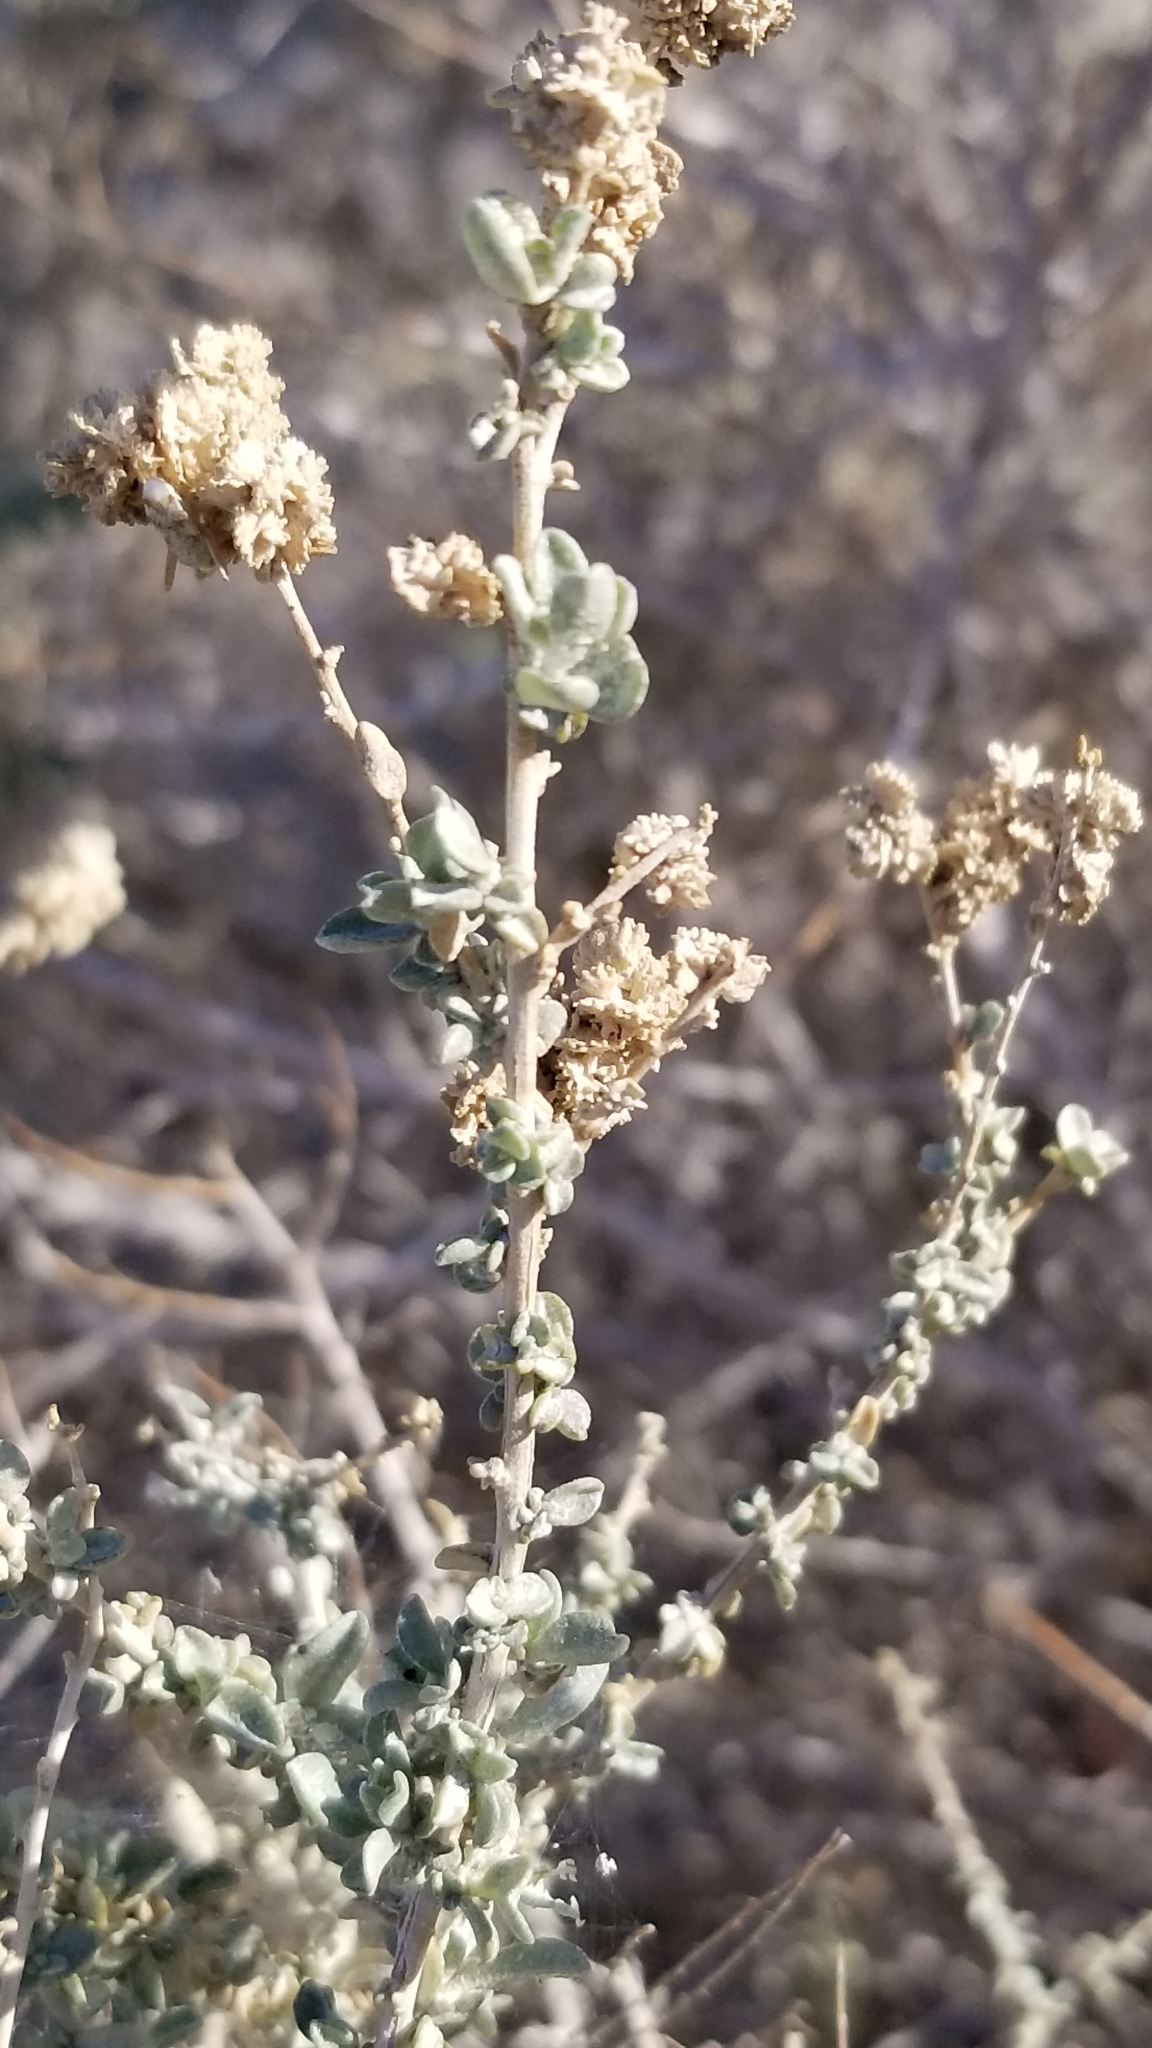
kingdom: Plantae
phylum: Tracheophyta
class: Magnoliopsida
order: Caryophyllales
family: Amaranthaceae
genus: Atriplex
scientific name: Atriplex polycarpa
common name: Desert saltbush
